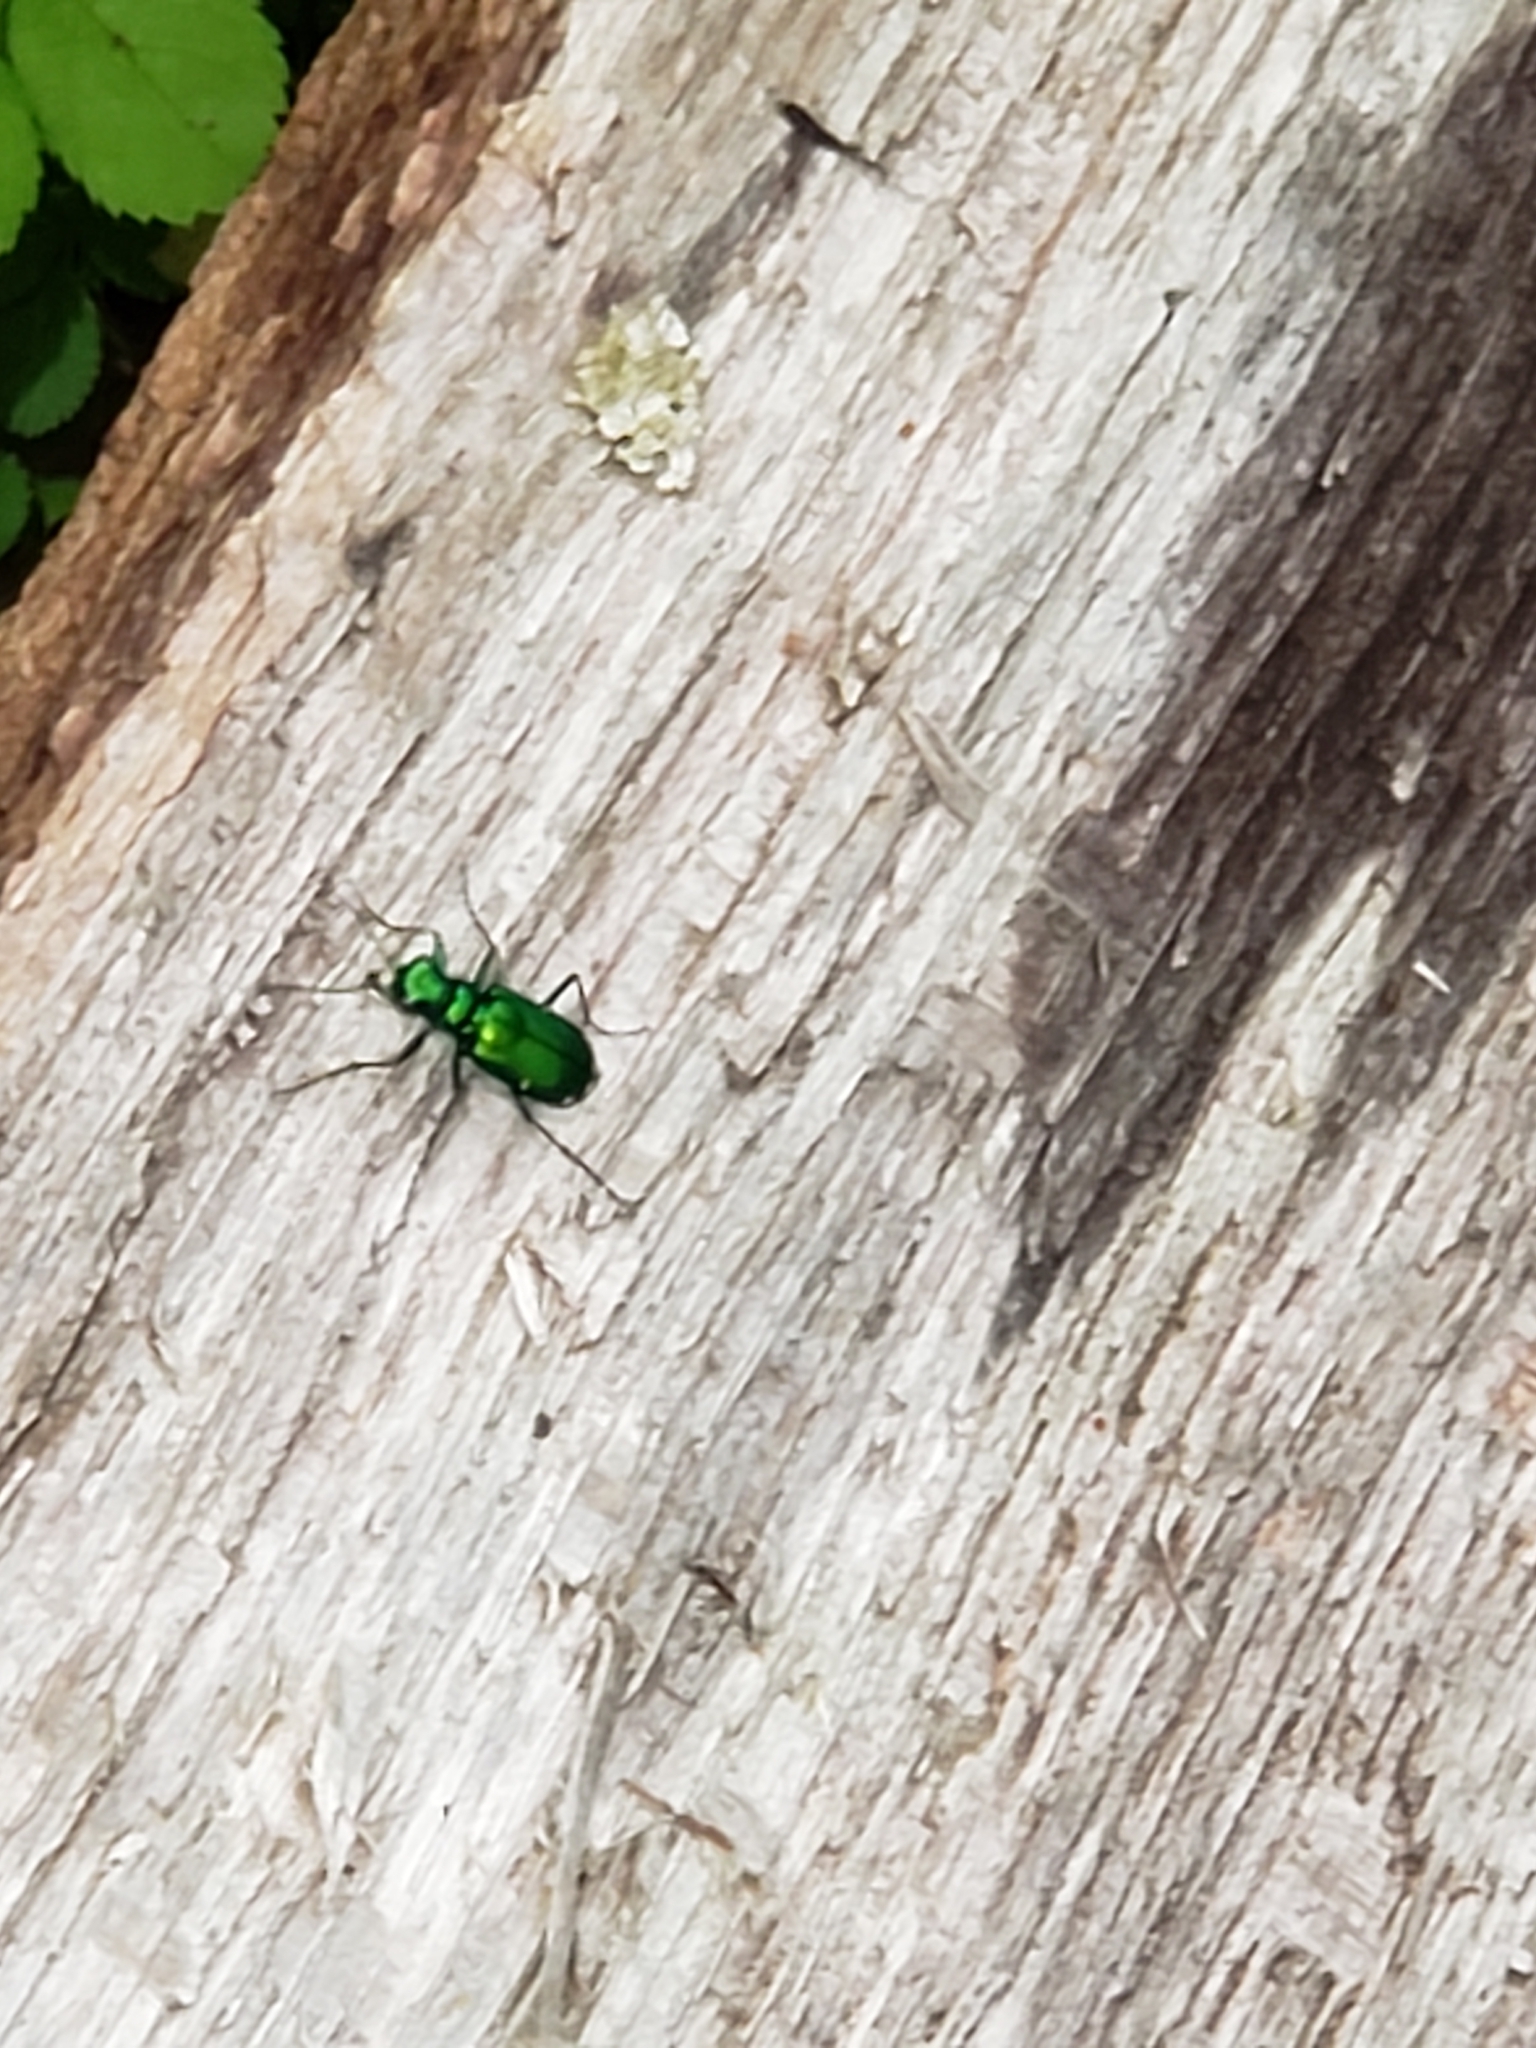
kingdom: Animalia
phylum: Arthropoda
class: Insecta
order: Coleoptera
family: Carabidae
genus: Cicindela
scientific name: Cicindela sexguttata
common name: Six-spotted tiger beetle
